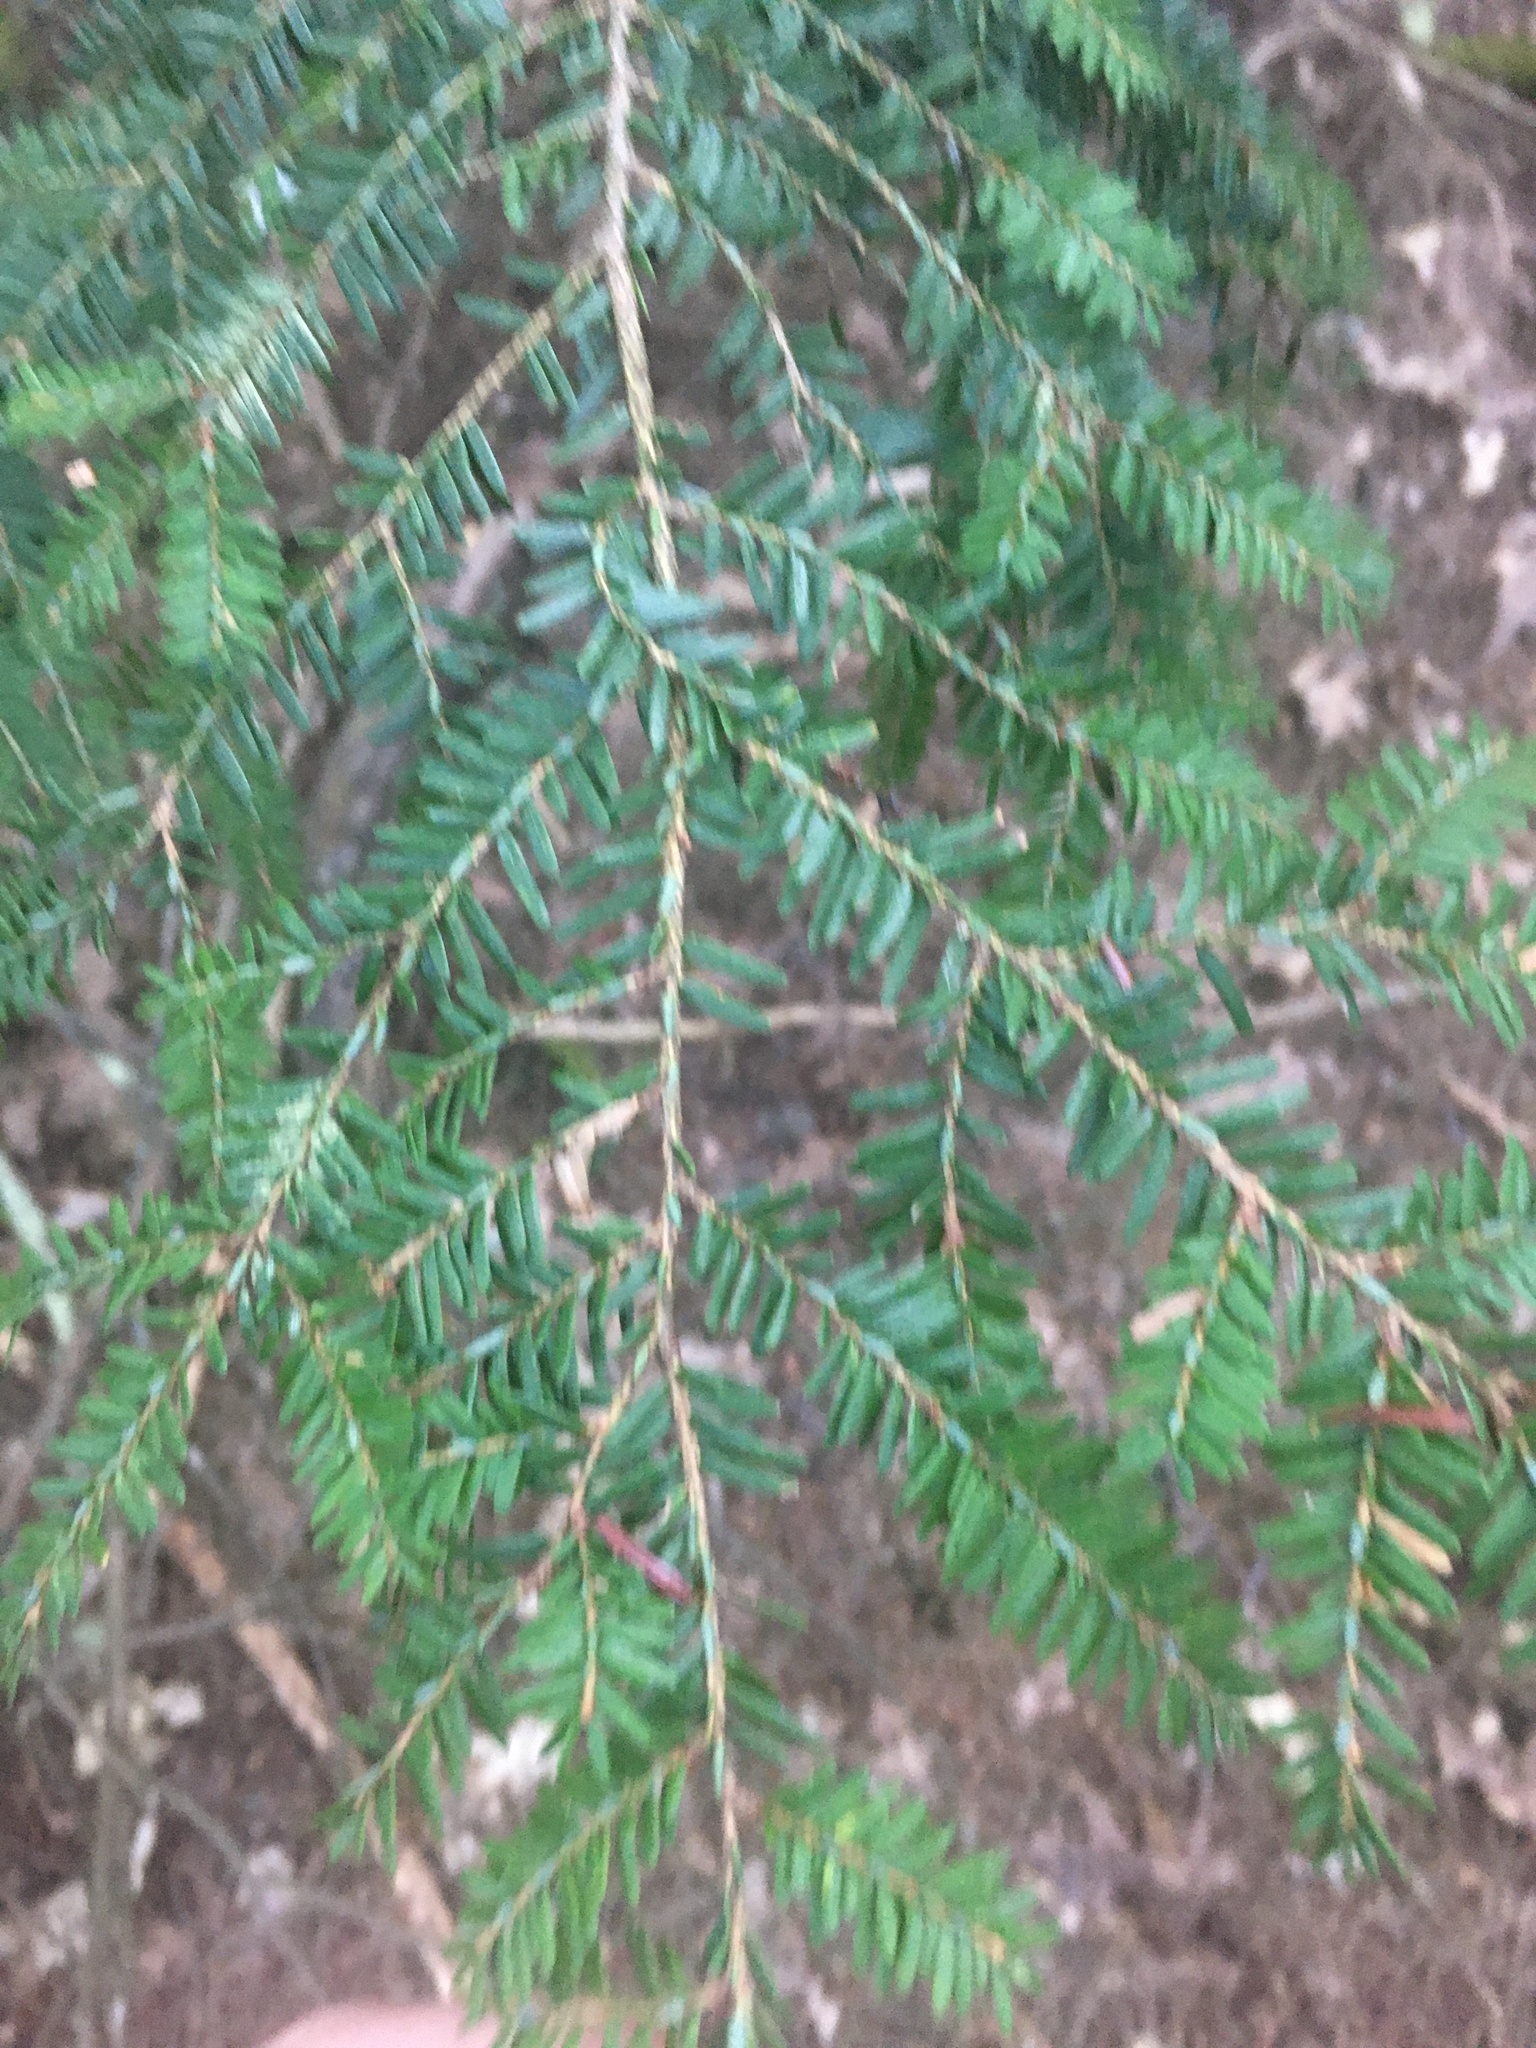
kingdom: Plantae
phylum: Tracheophyta
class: Pinopsida
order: Pinales
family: Pinaceae
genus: Tsuga
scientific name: Tsuga canadensis
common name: Eastern hemlock
